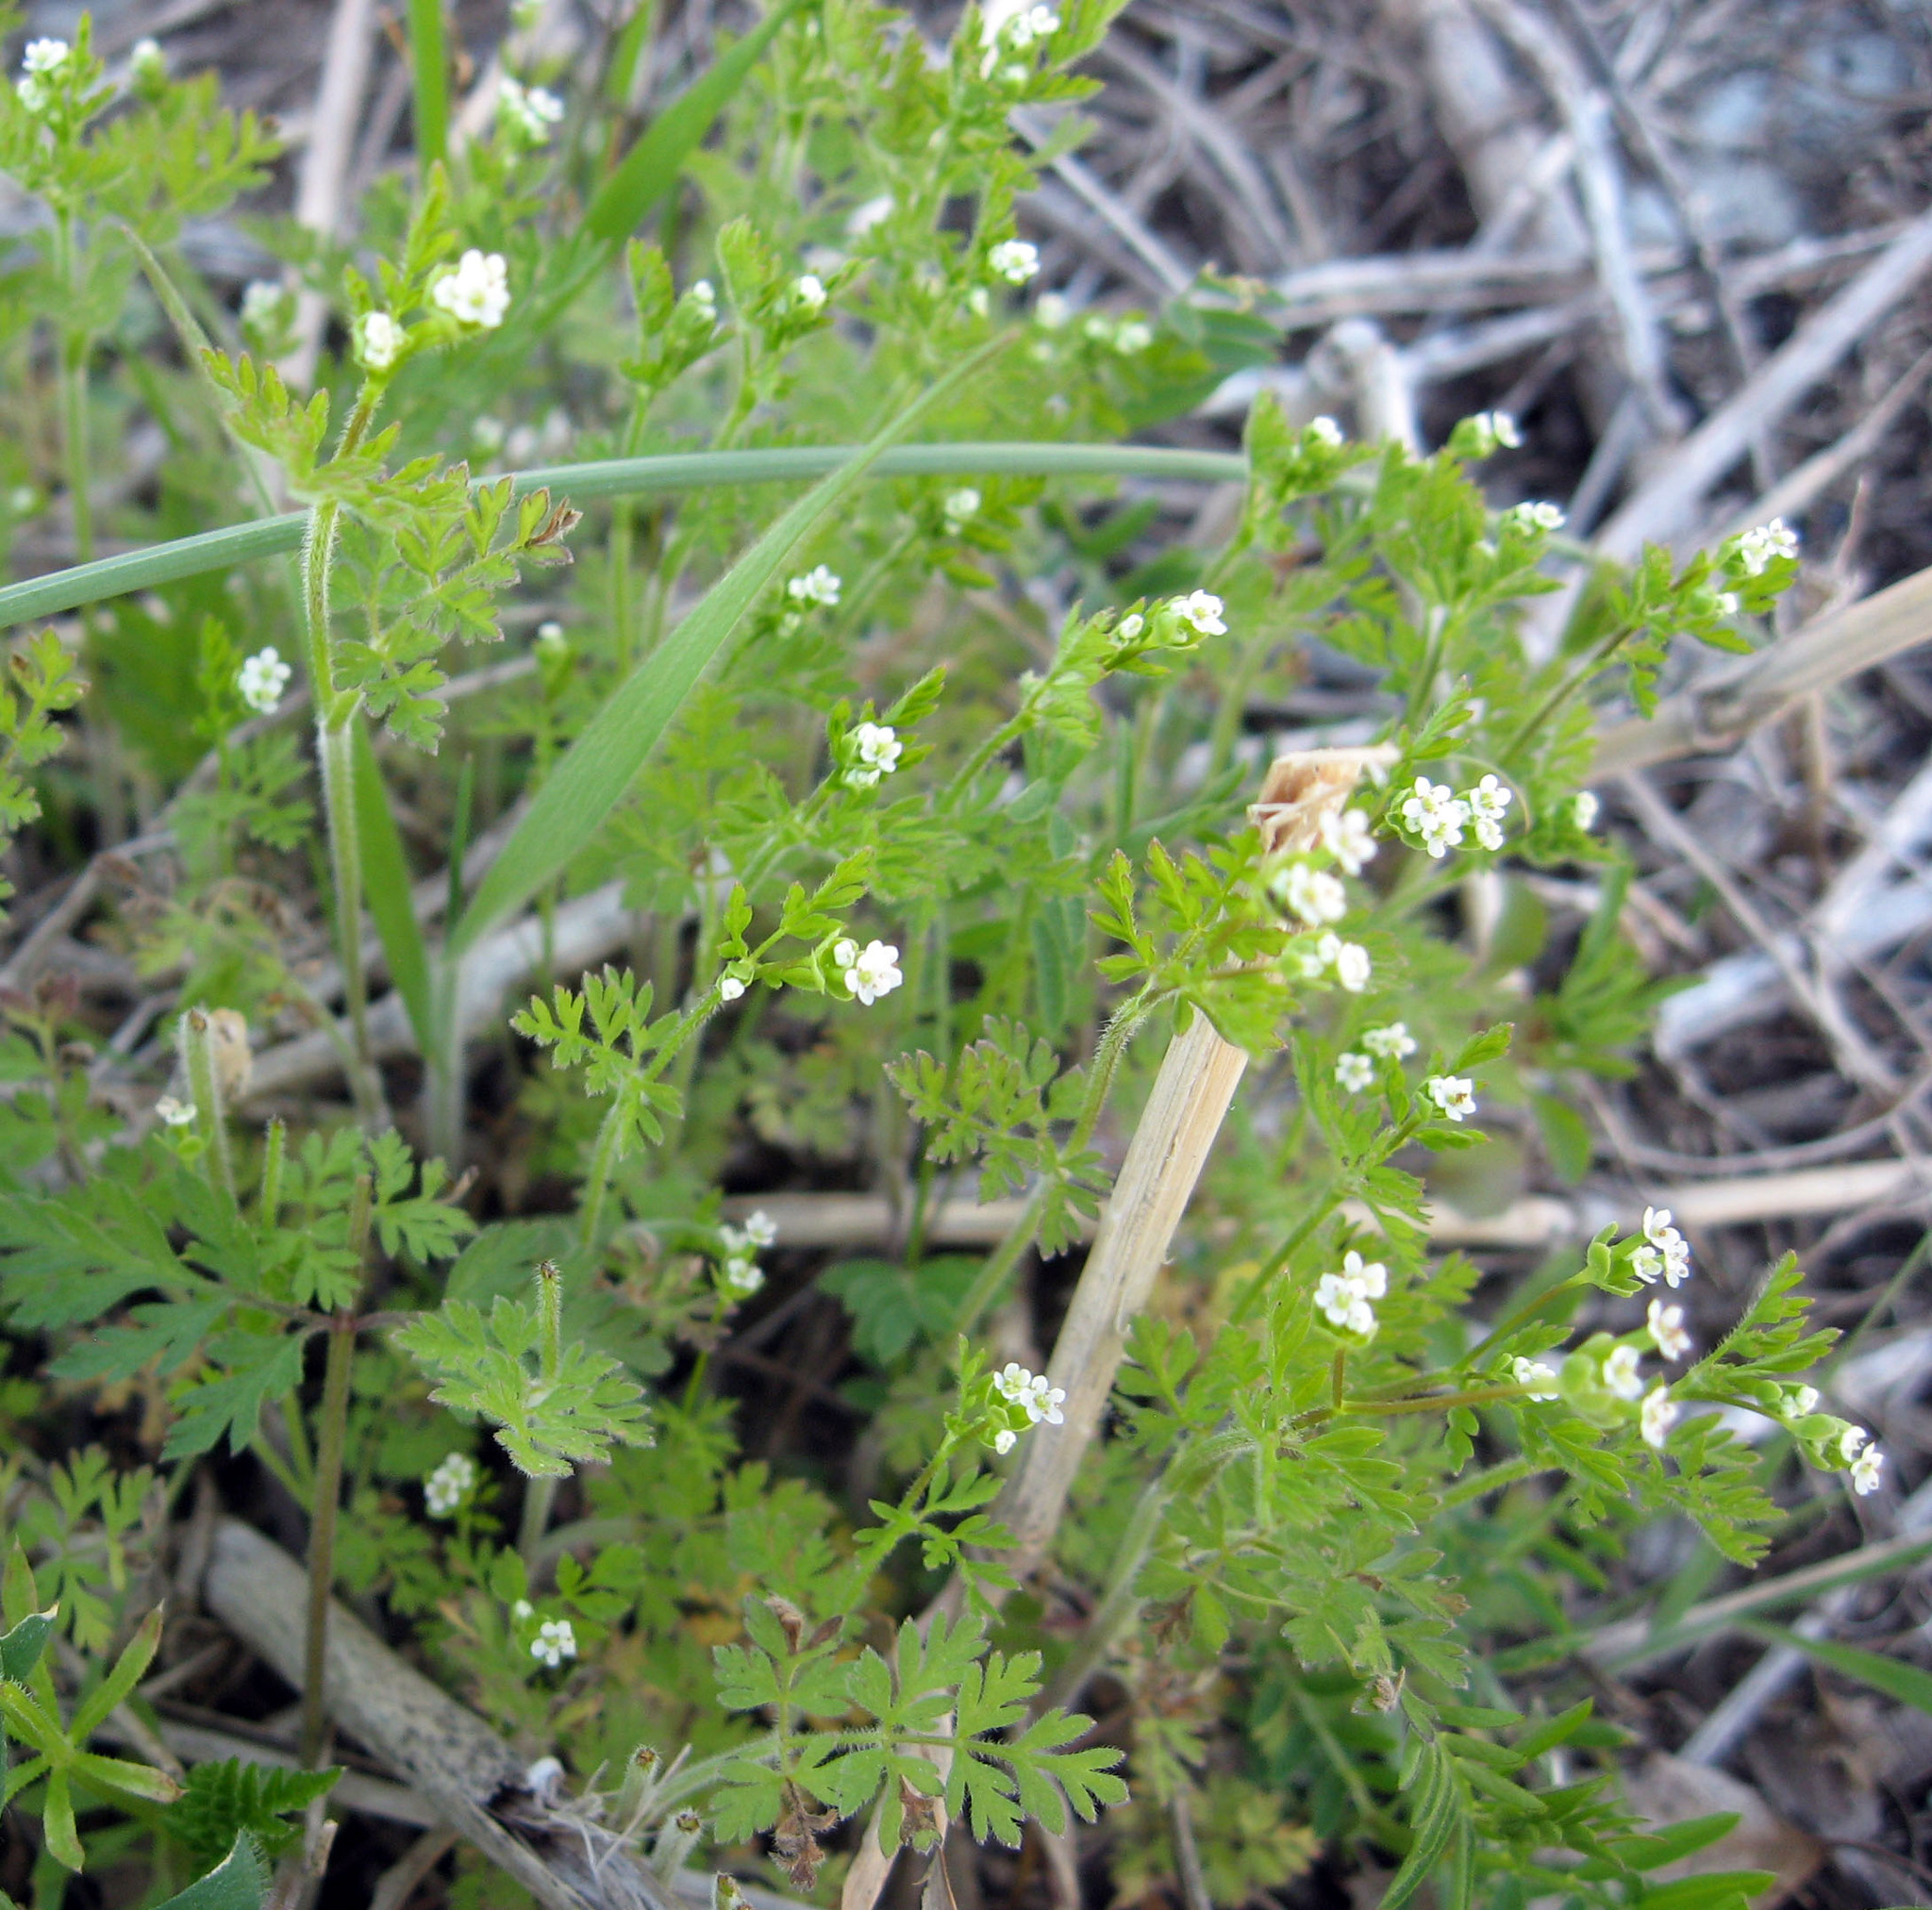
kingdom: Plantae
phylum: Tracheophyta
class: Magnoliopsida
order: Apiales
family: Apiaceae
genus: Chaerophyllum
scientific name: Chaerophyllum tainturieri
